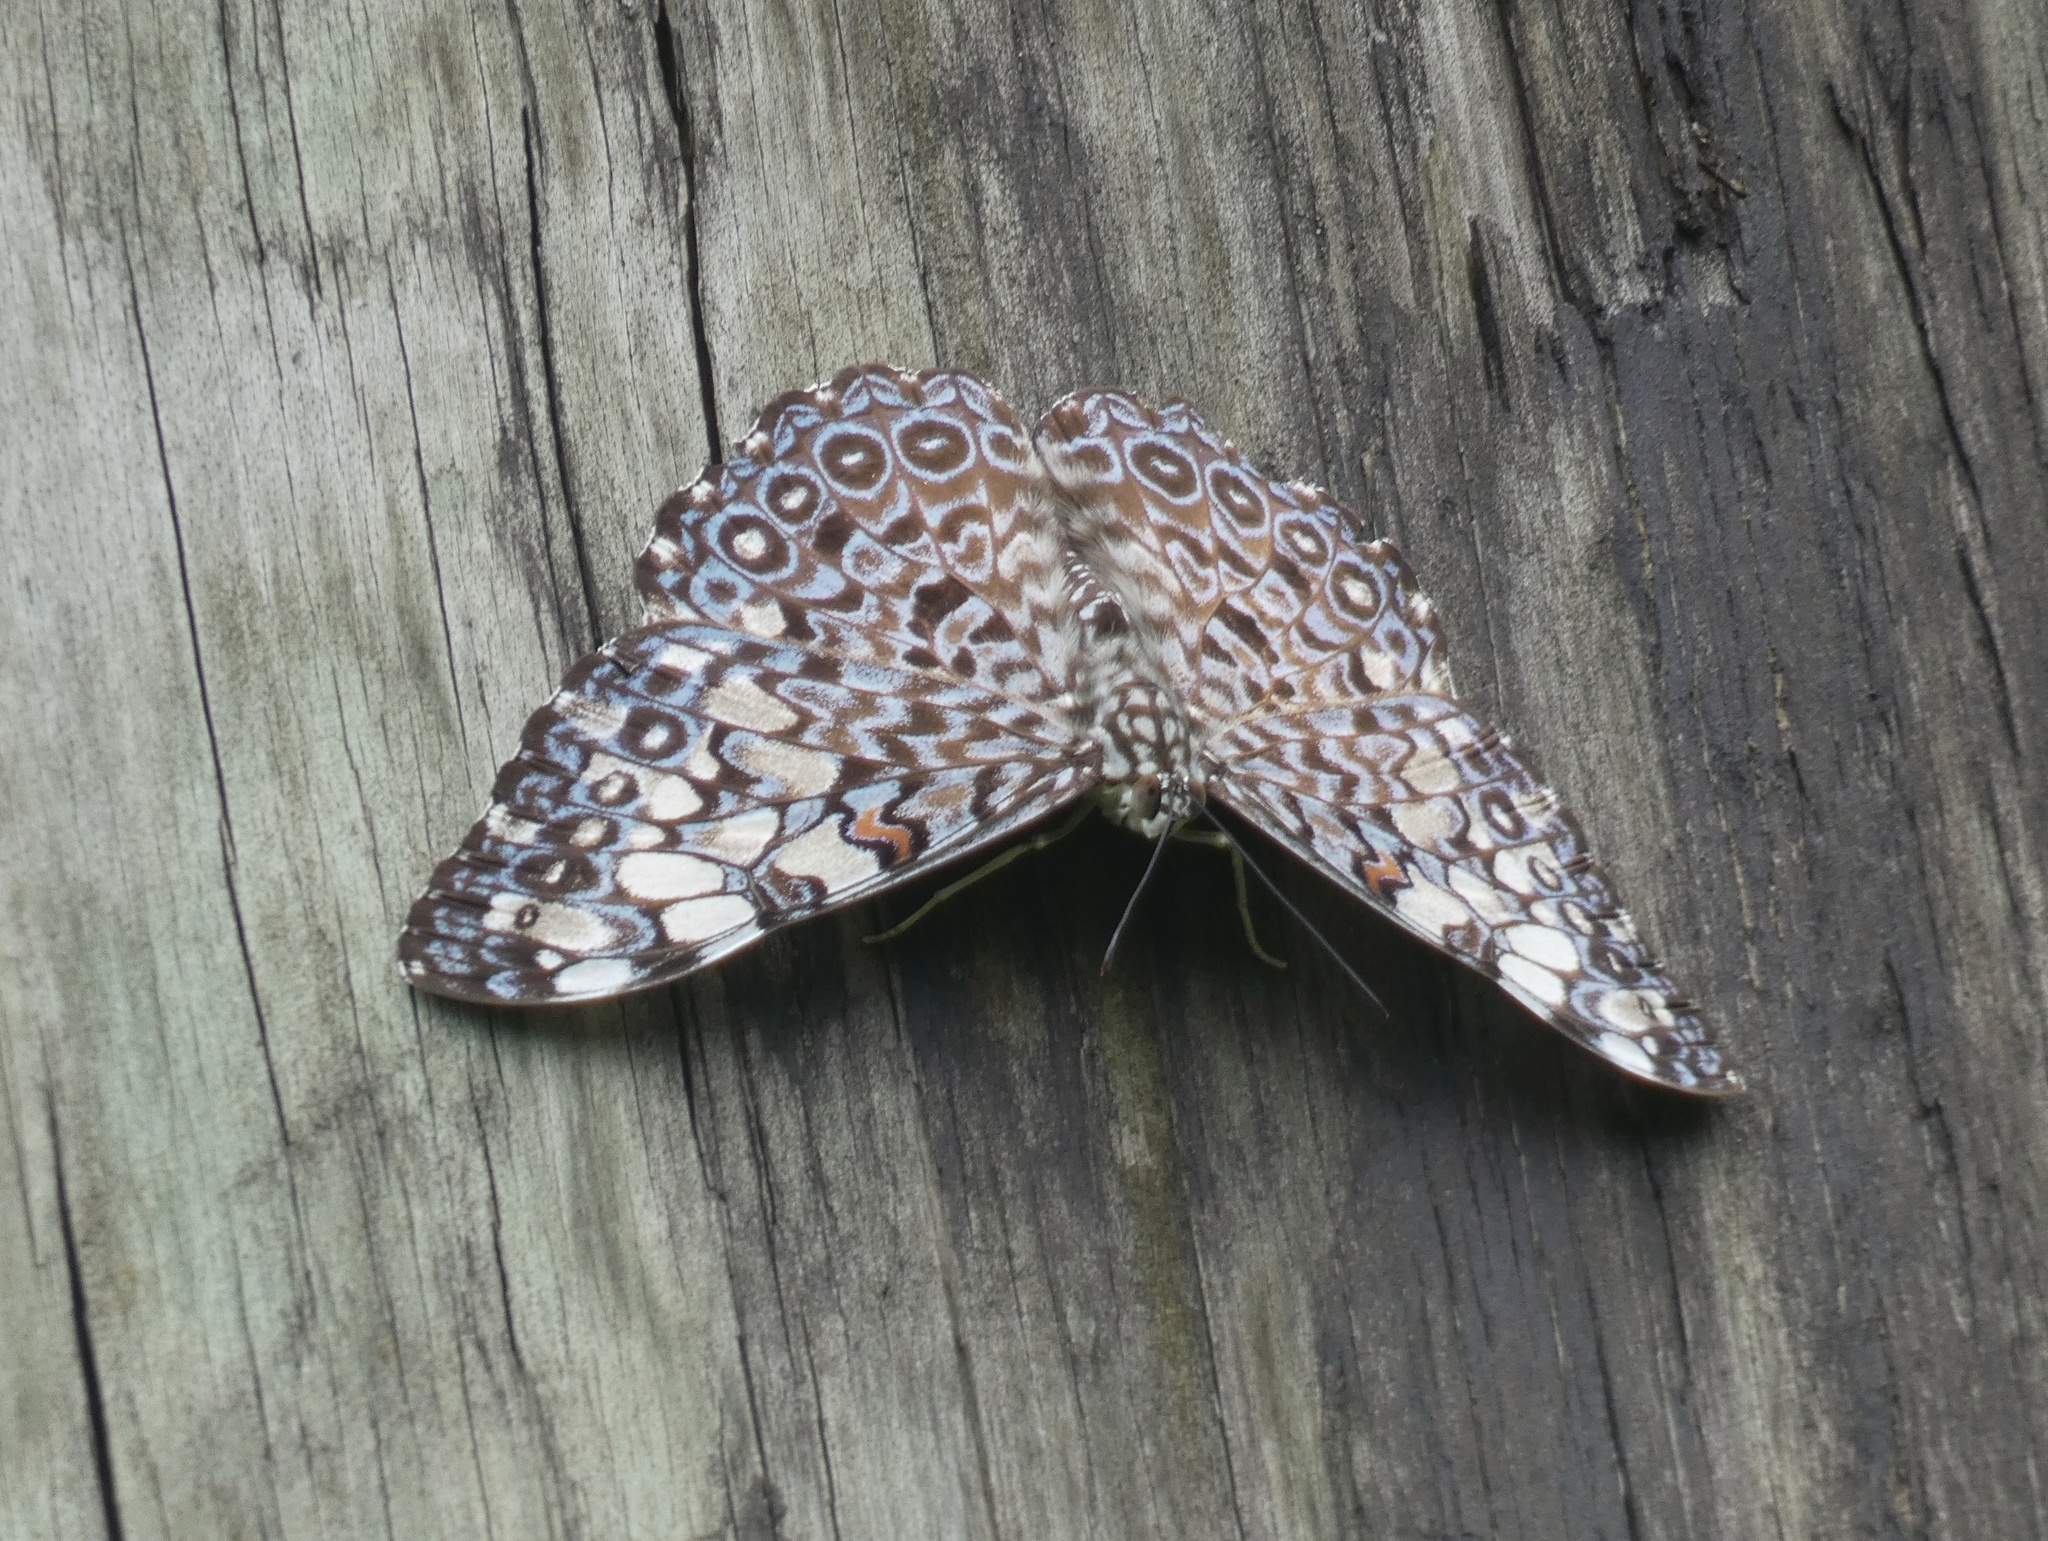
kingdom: Animalia
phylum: Arthropoda
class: Insecta
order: Lepidoptera
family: Nymphalidae
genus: Hamadryas
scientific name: Hamadryas feronia
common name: Variable cracker
